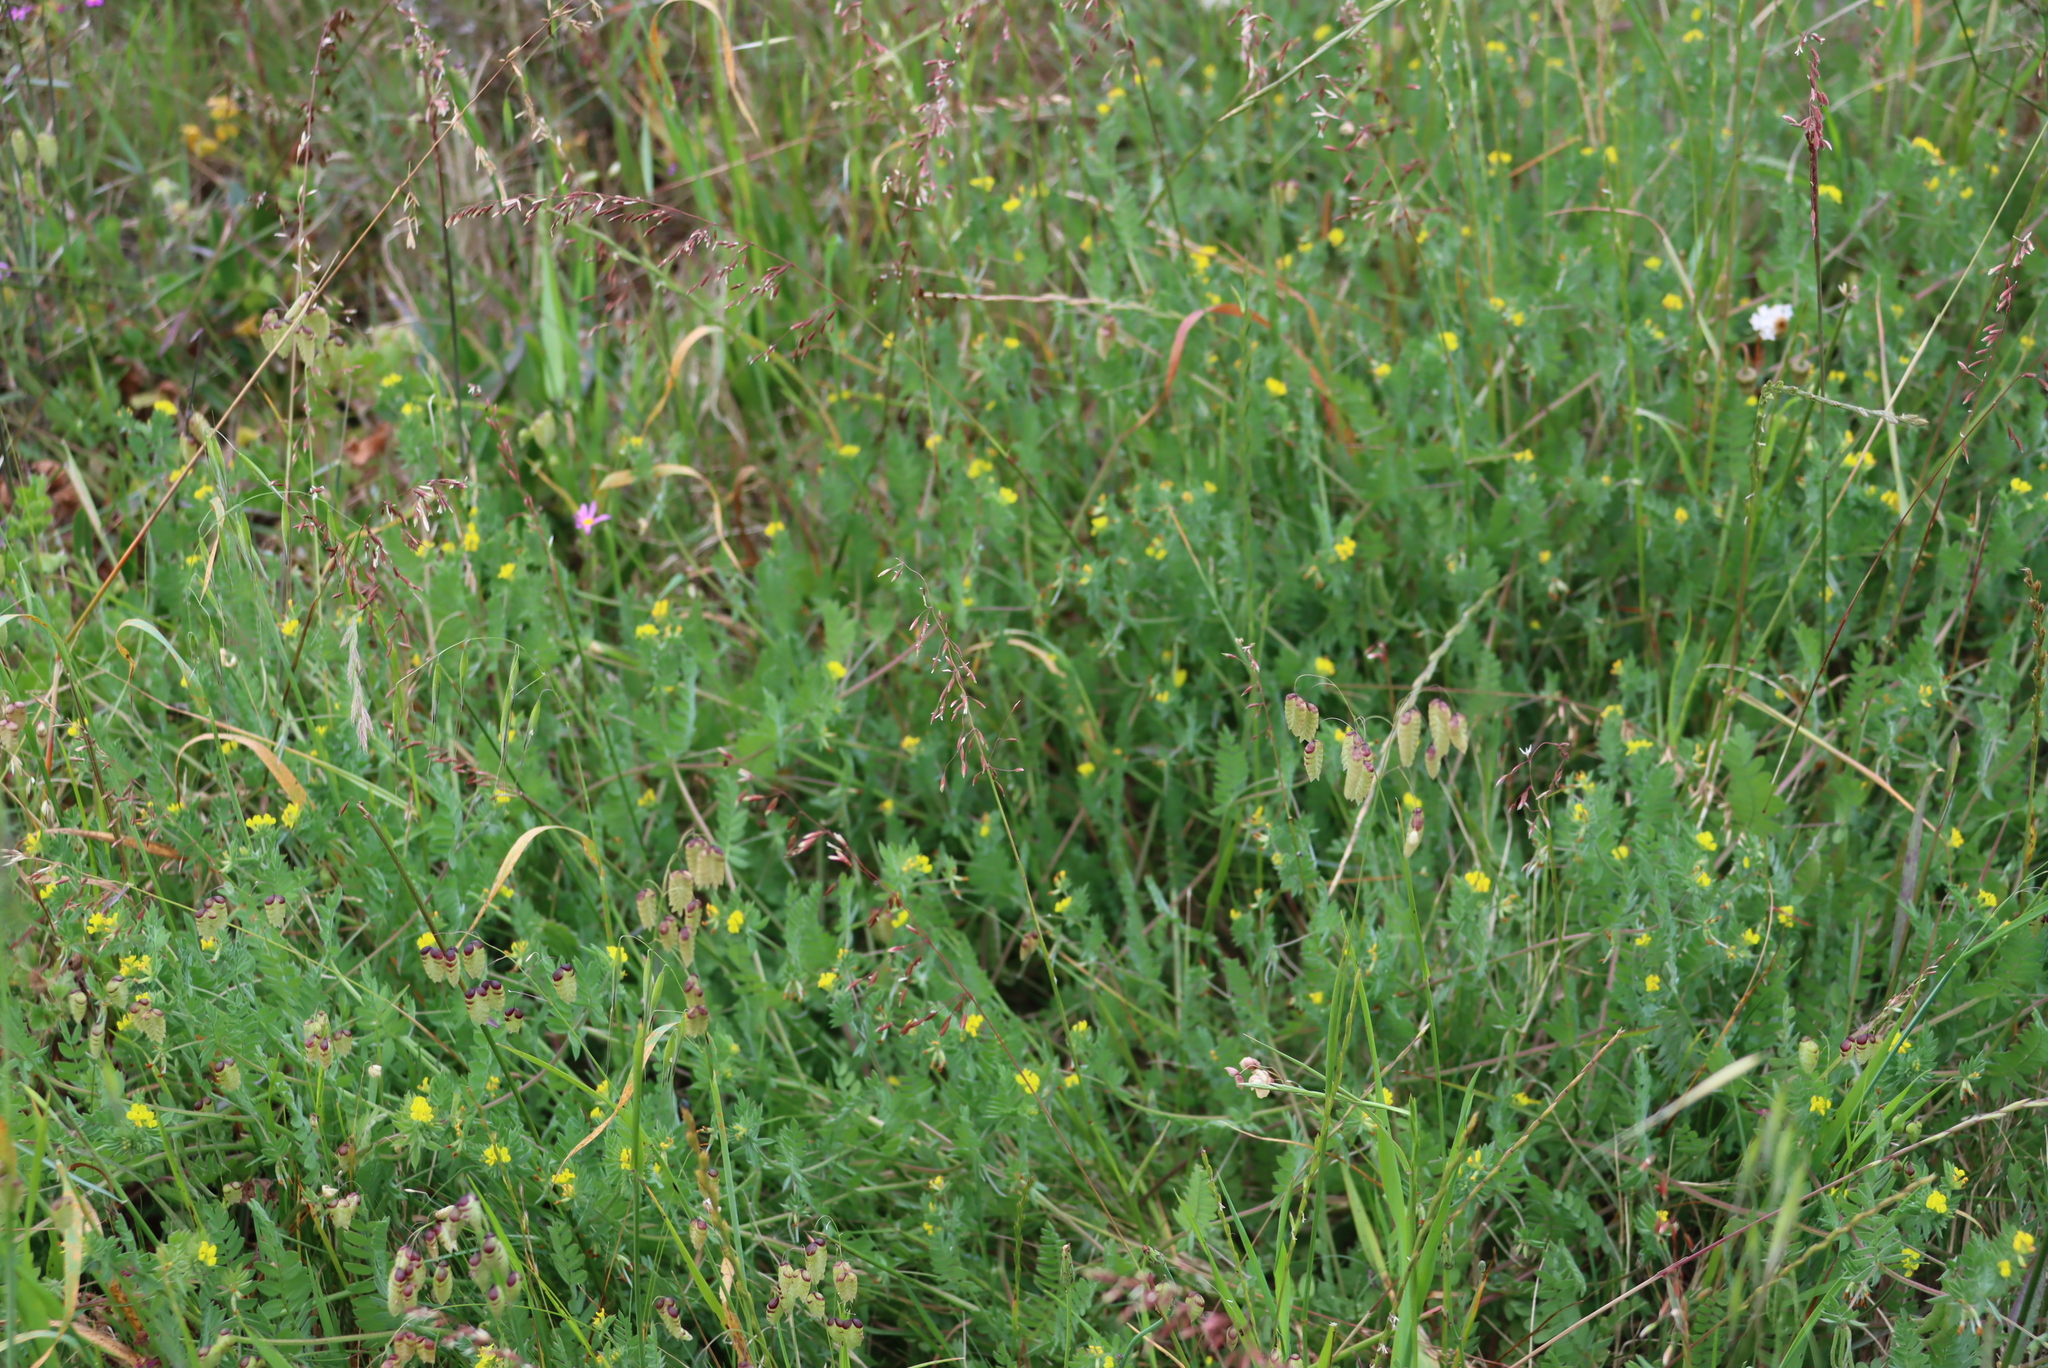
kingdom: Plantae
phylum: Tracheophyta
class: Liliopsida
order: Poales
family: Poaceae
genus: Briza
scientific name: Briza maxima
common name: Big quakinggrass
